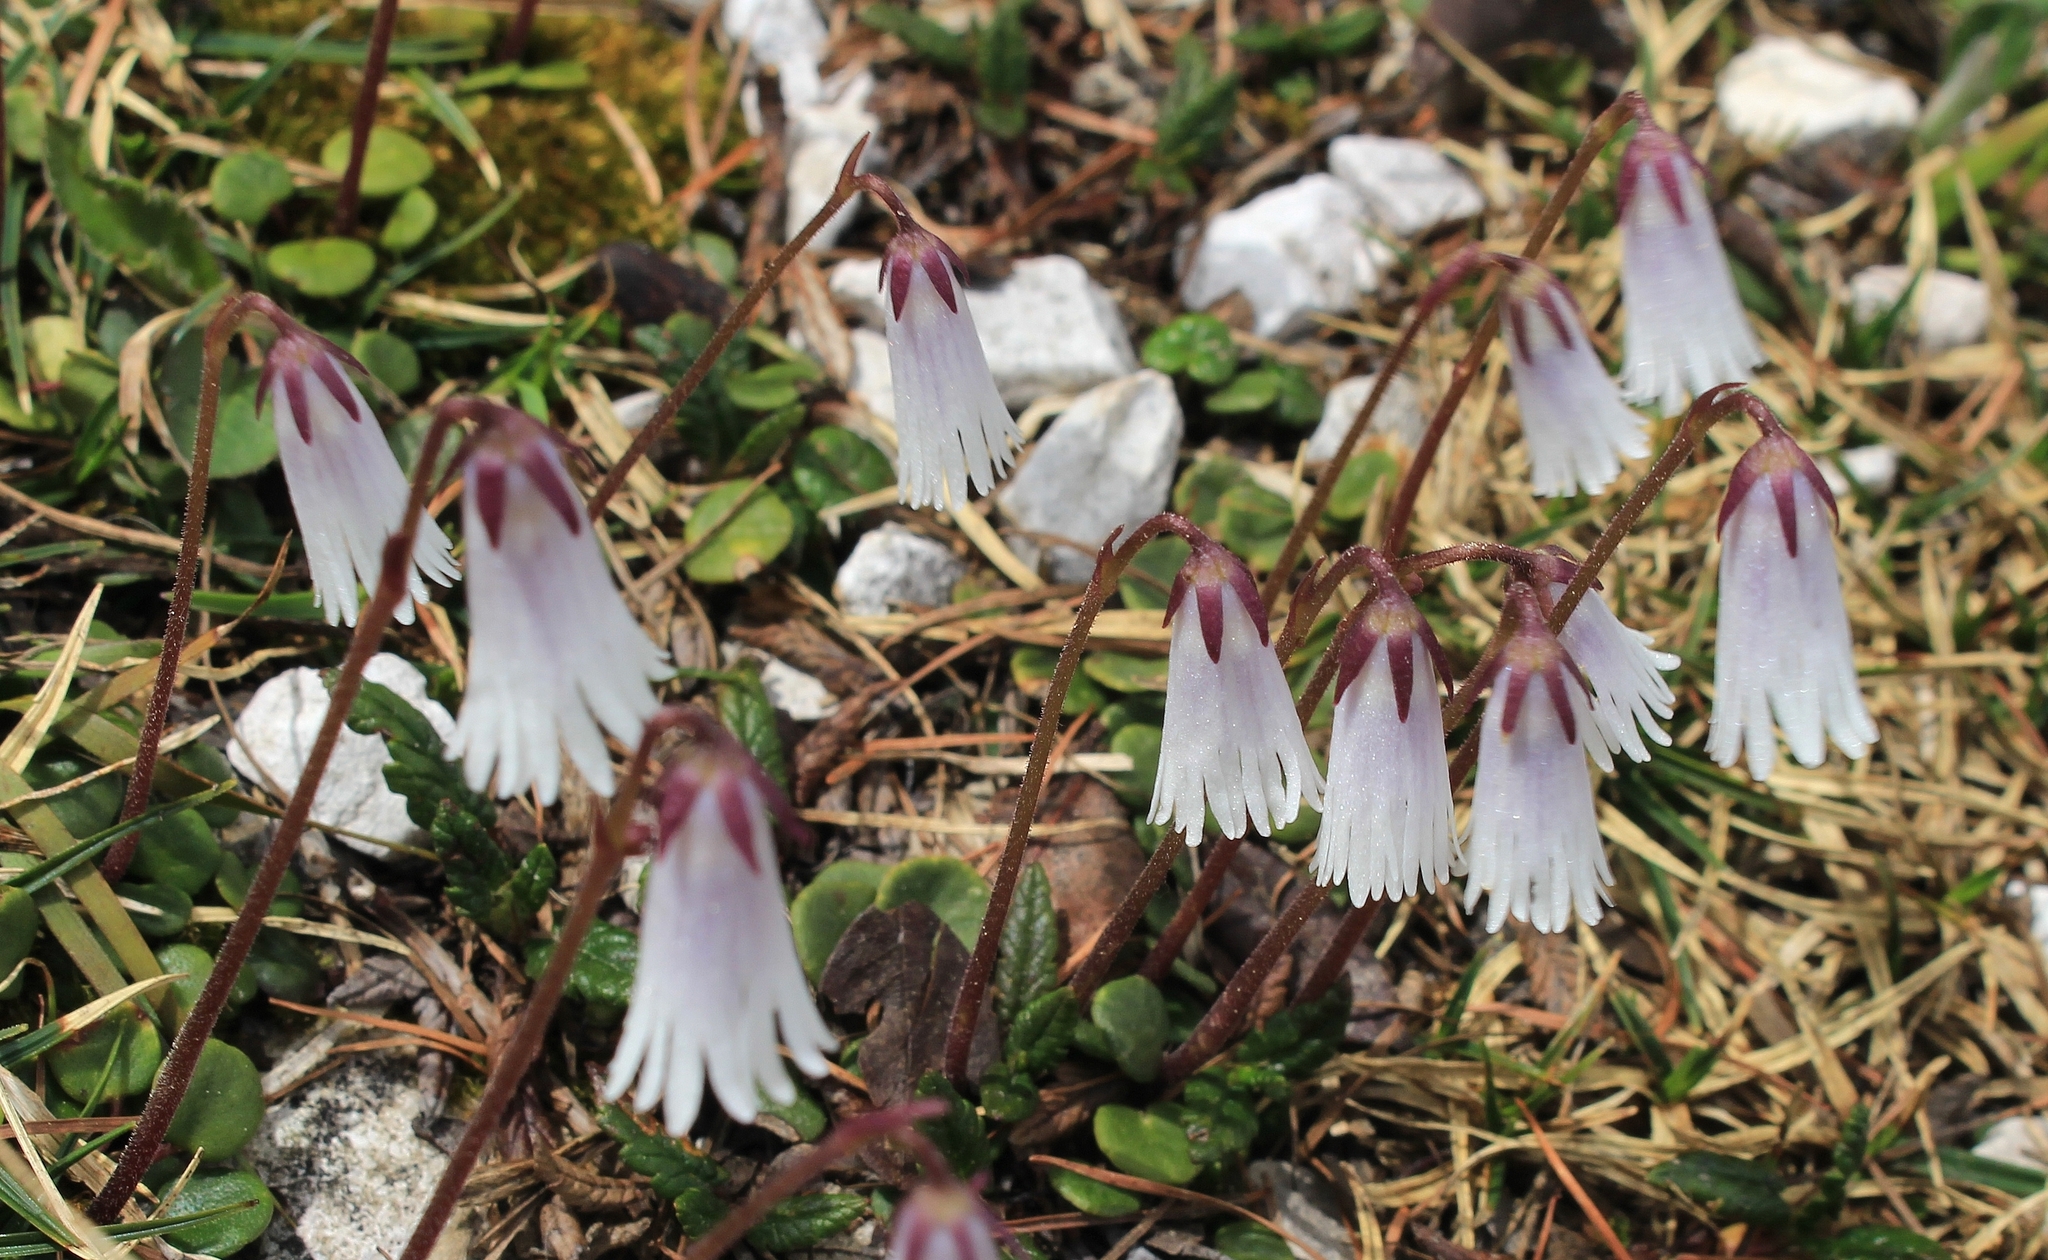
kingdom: Plantae
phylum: Tracheophyta
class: Magnoliopsida
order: Ericales
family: Primulaceae
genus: Soldanella
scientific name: Soldanella minima
